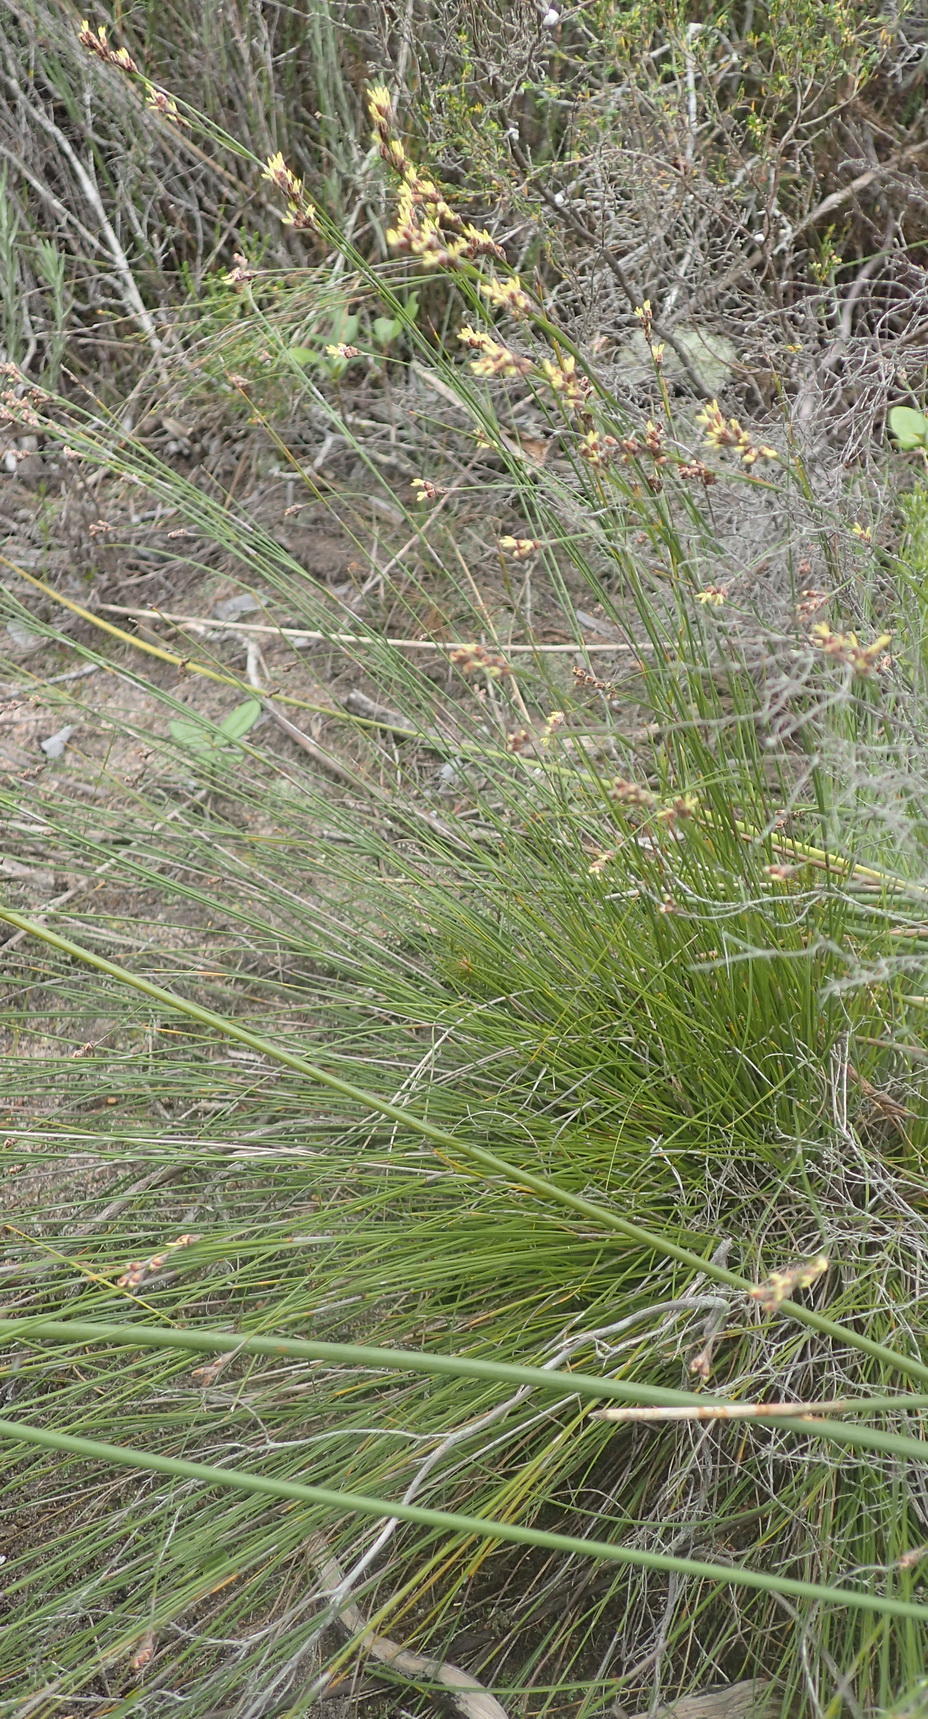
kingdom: Plantae
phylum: Tracheophyta
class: Liliopsida
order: Poales
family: Cyperaceae
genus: Tetraria
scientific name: Tetraria fimbriolata
